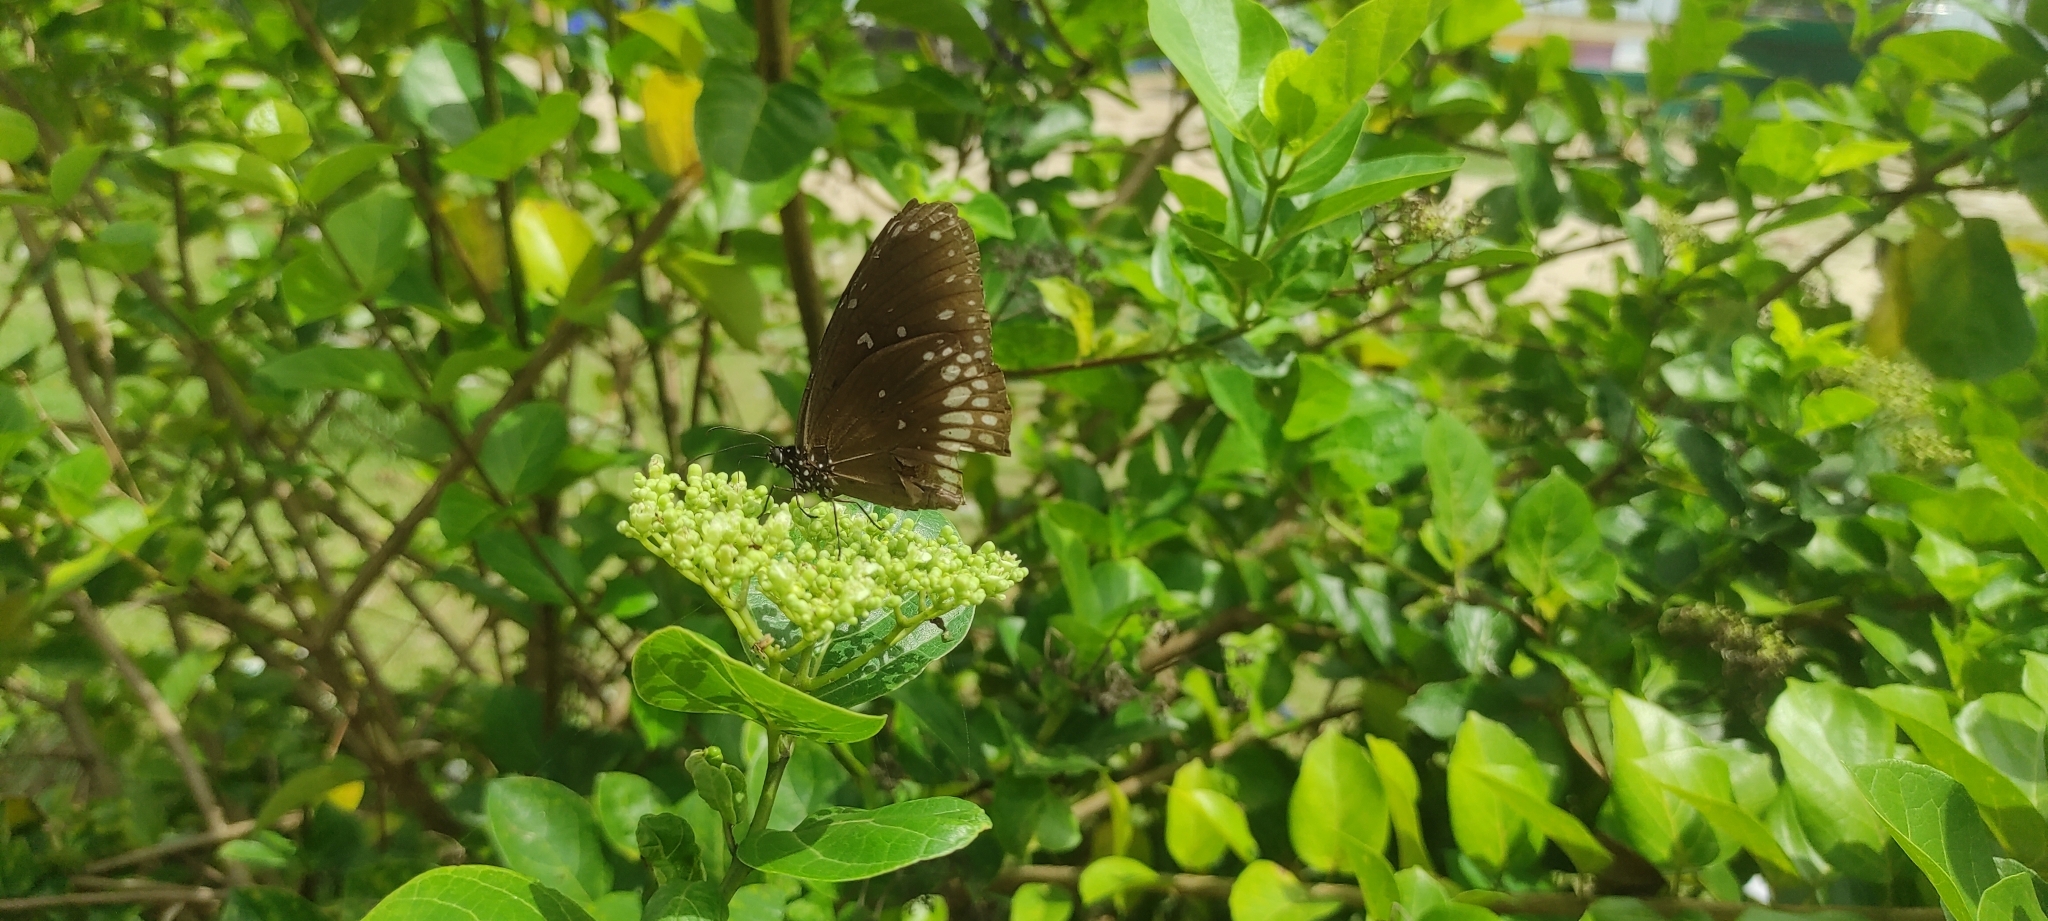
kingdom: Animalia
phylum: Arthropoda
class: Insecta
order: Lepidoptera
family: Nymphalidae
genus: Euploea
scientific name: Euploea core
